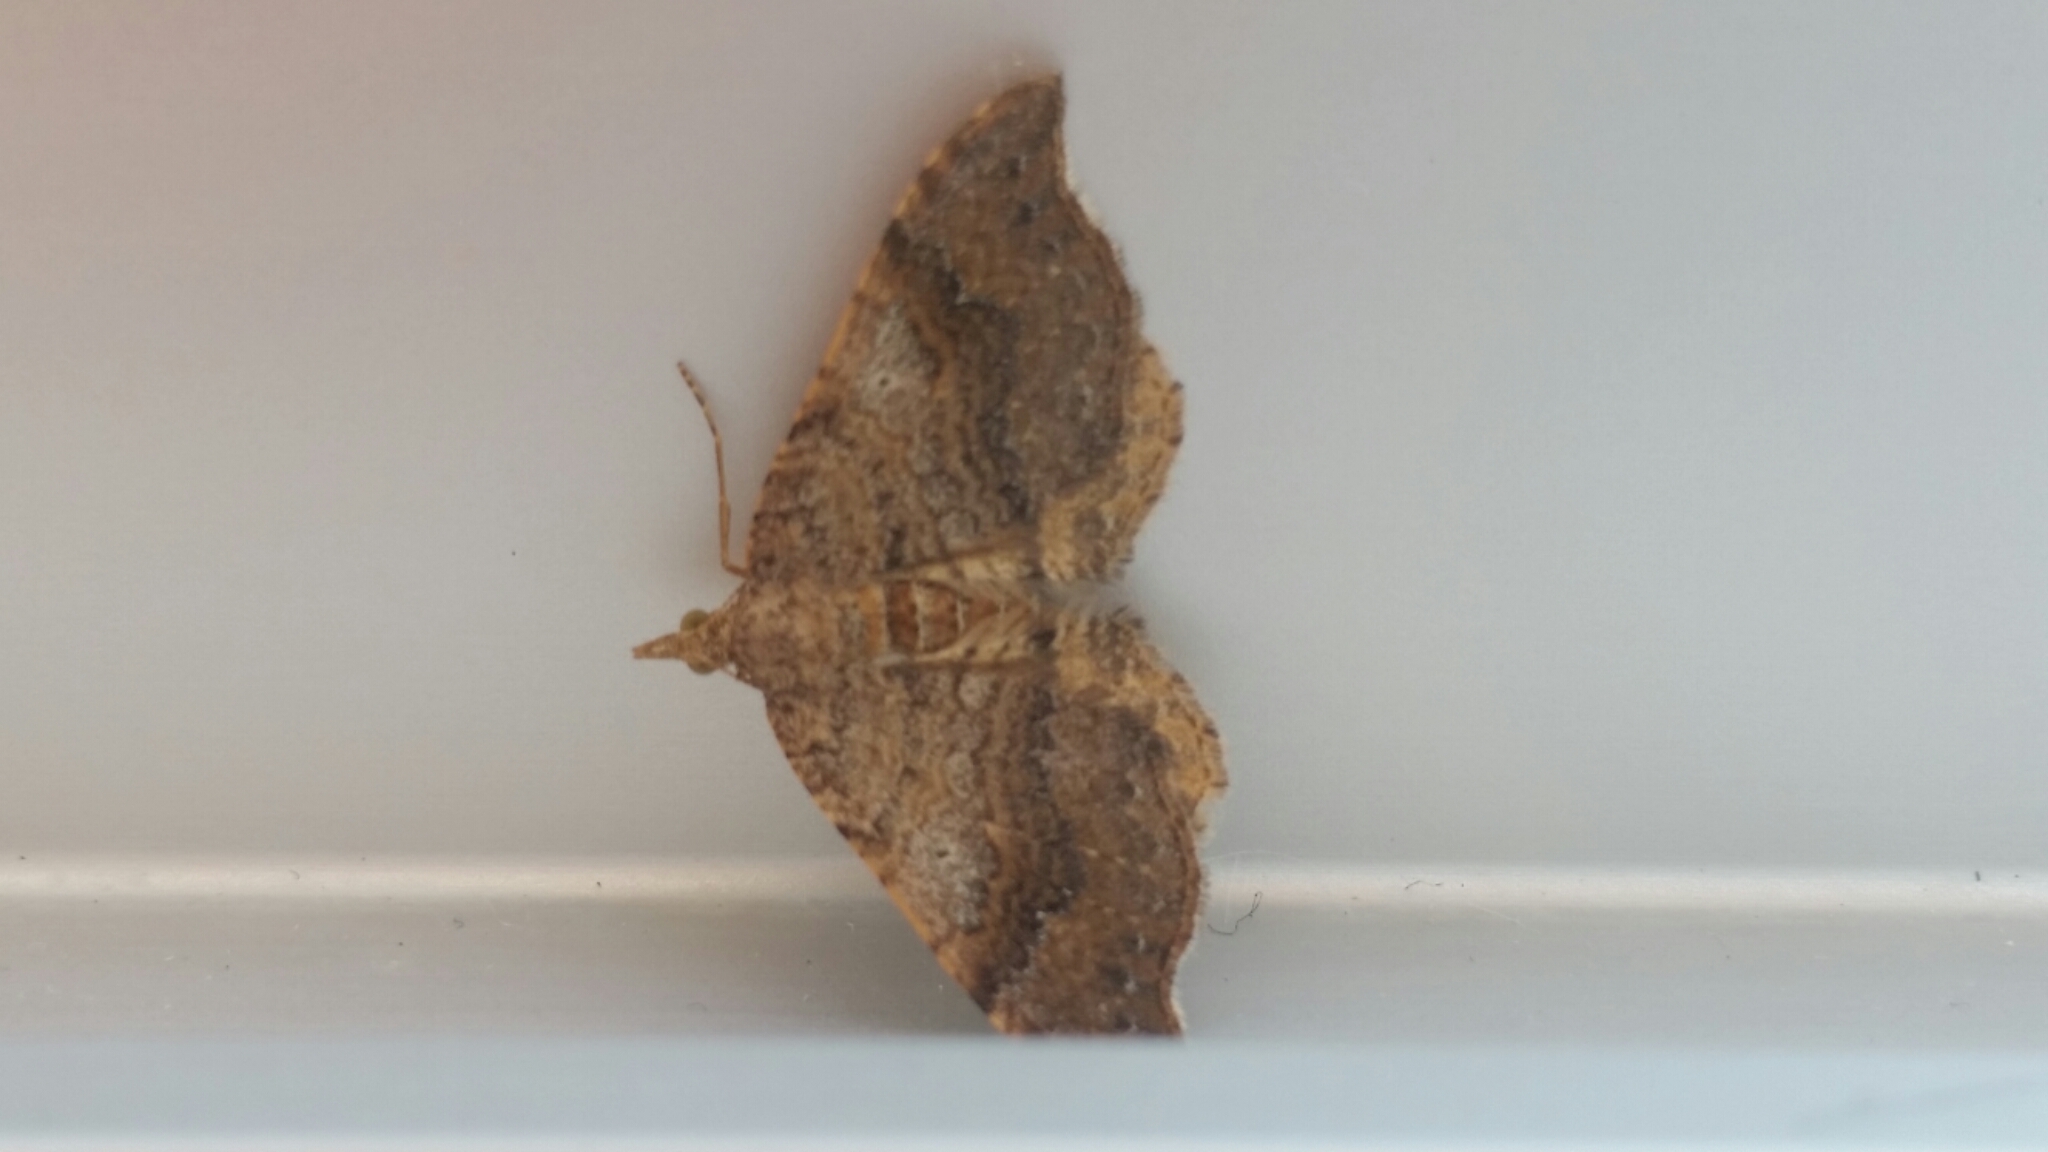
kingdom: Animalia
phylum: Arthropoda
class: Insecta
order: Lepidoptera
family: Geometridae
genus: Homodotis
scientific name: Homodotis megaspilata
